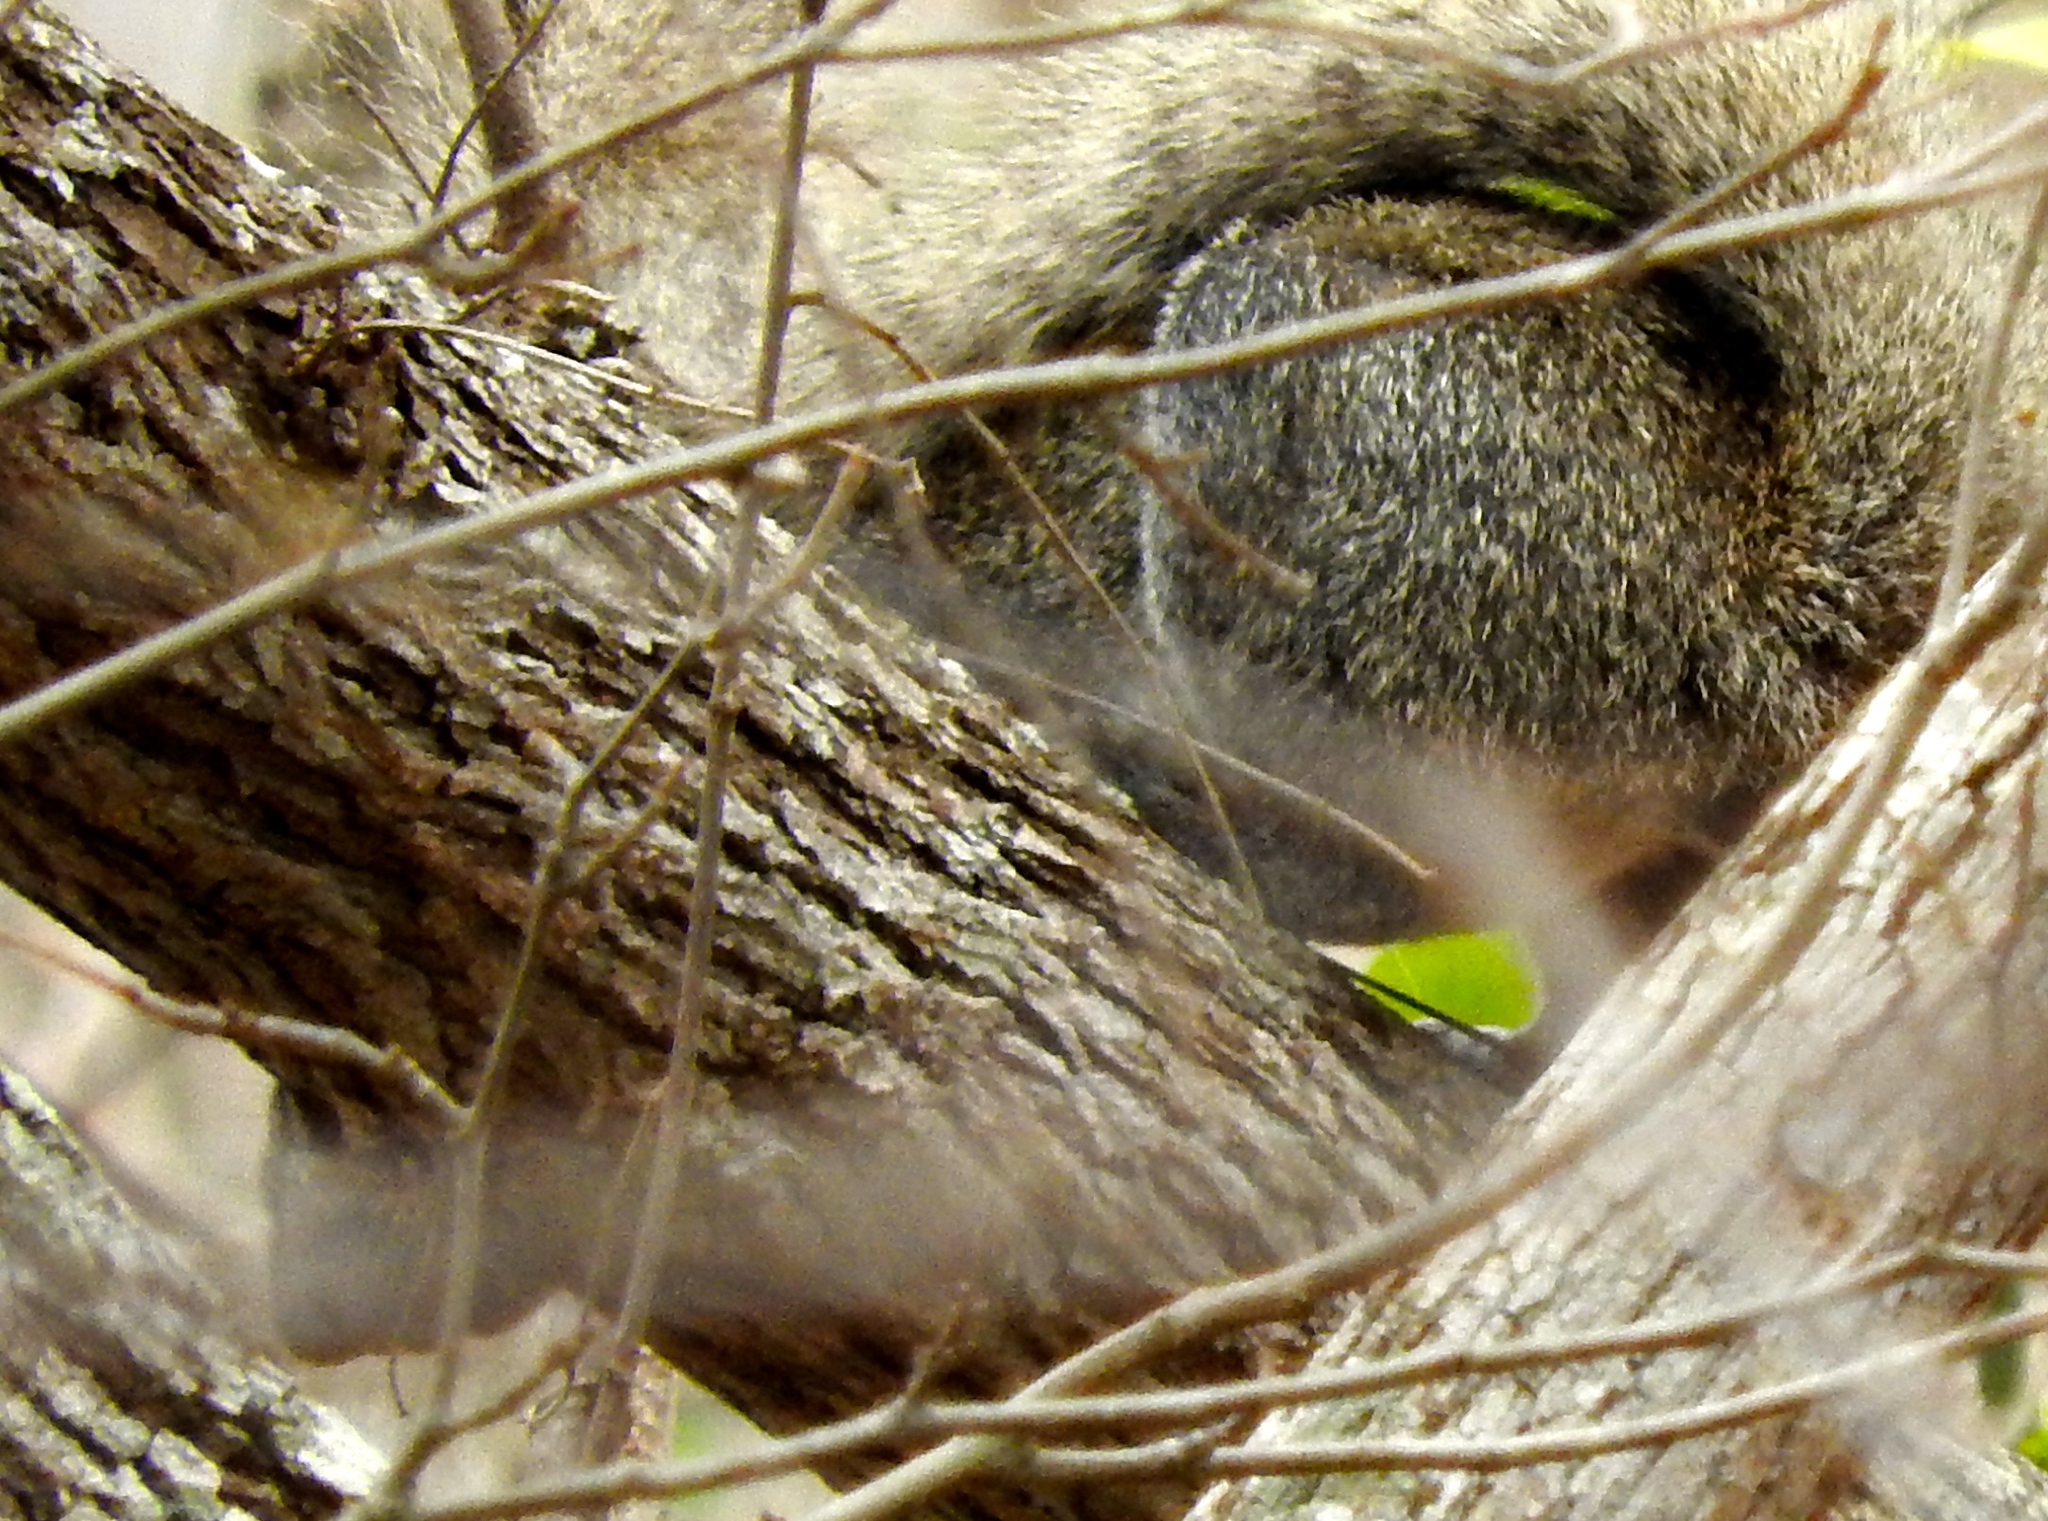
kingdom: Animalia
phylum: Chordata
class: Mammalia
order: Rodentia
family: Sciuridae
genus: Sciurus
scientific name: Sciurus colliaei
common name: Collie's squirrel
